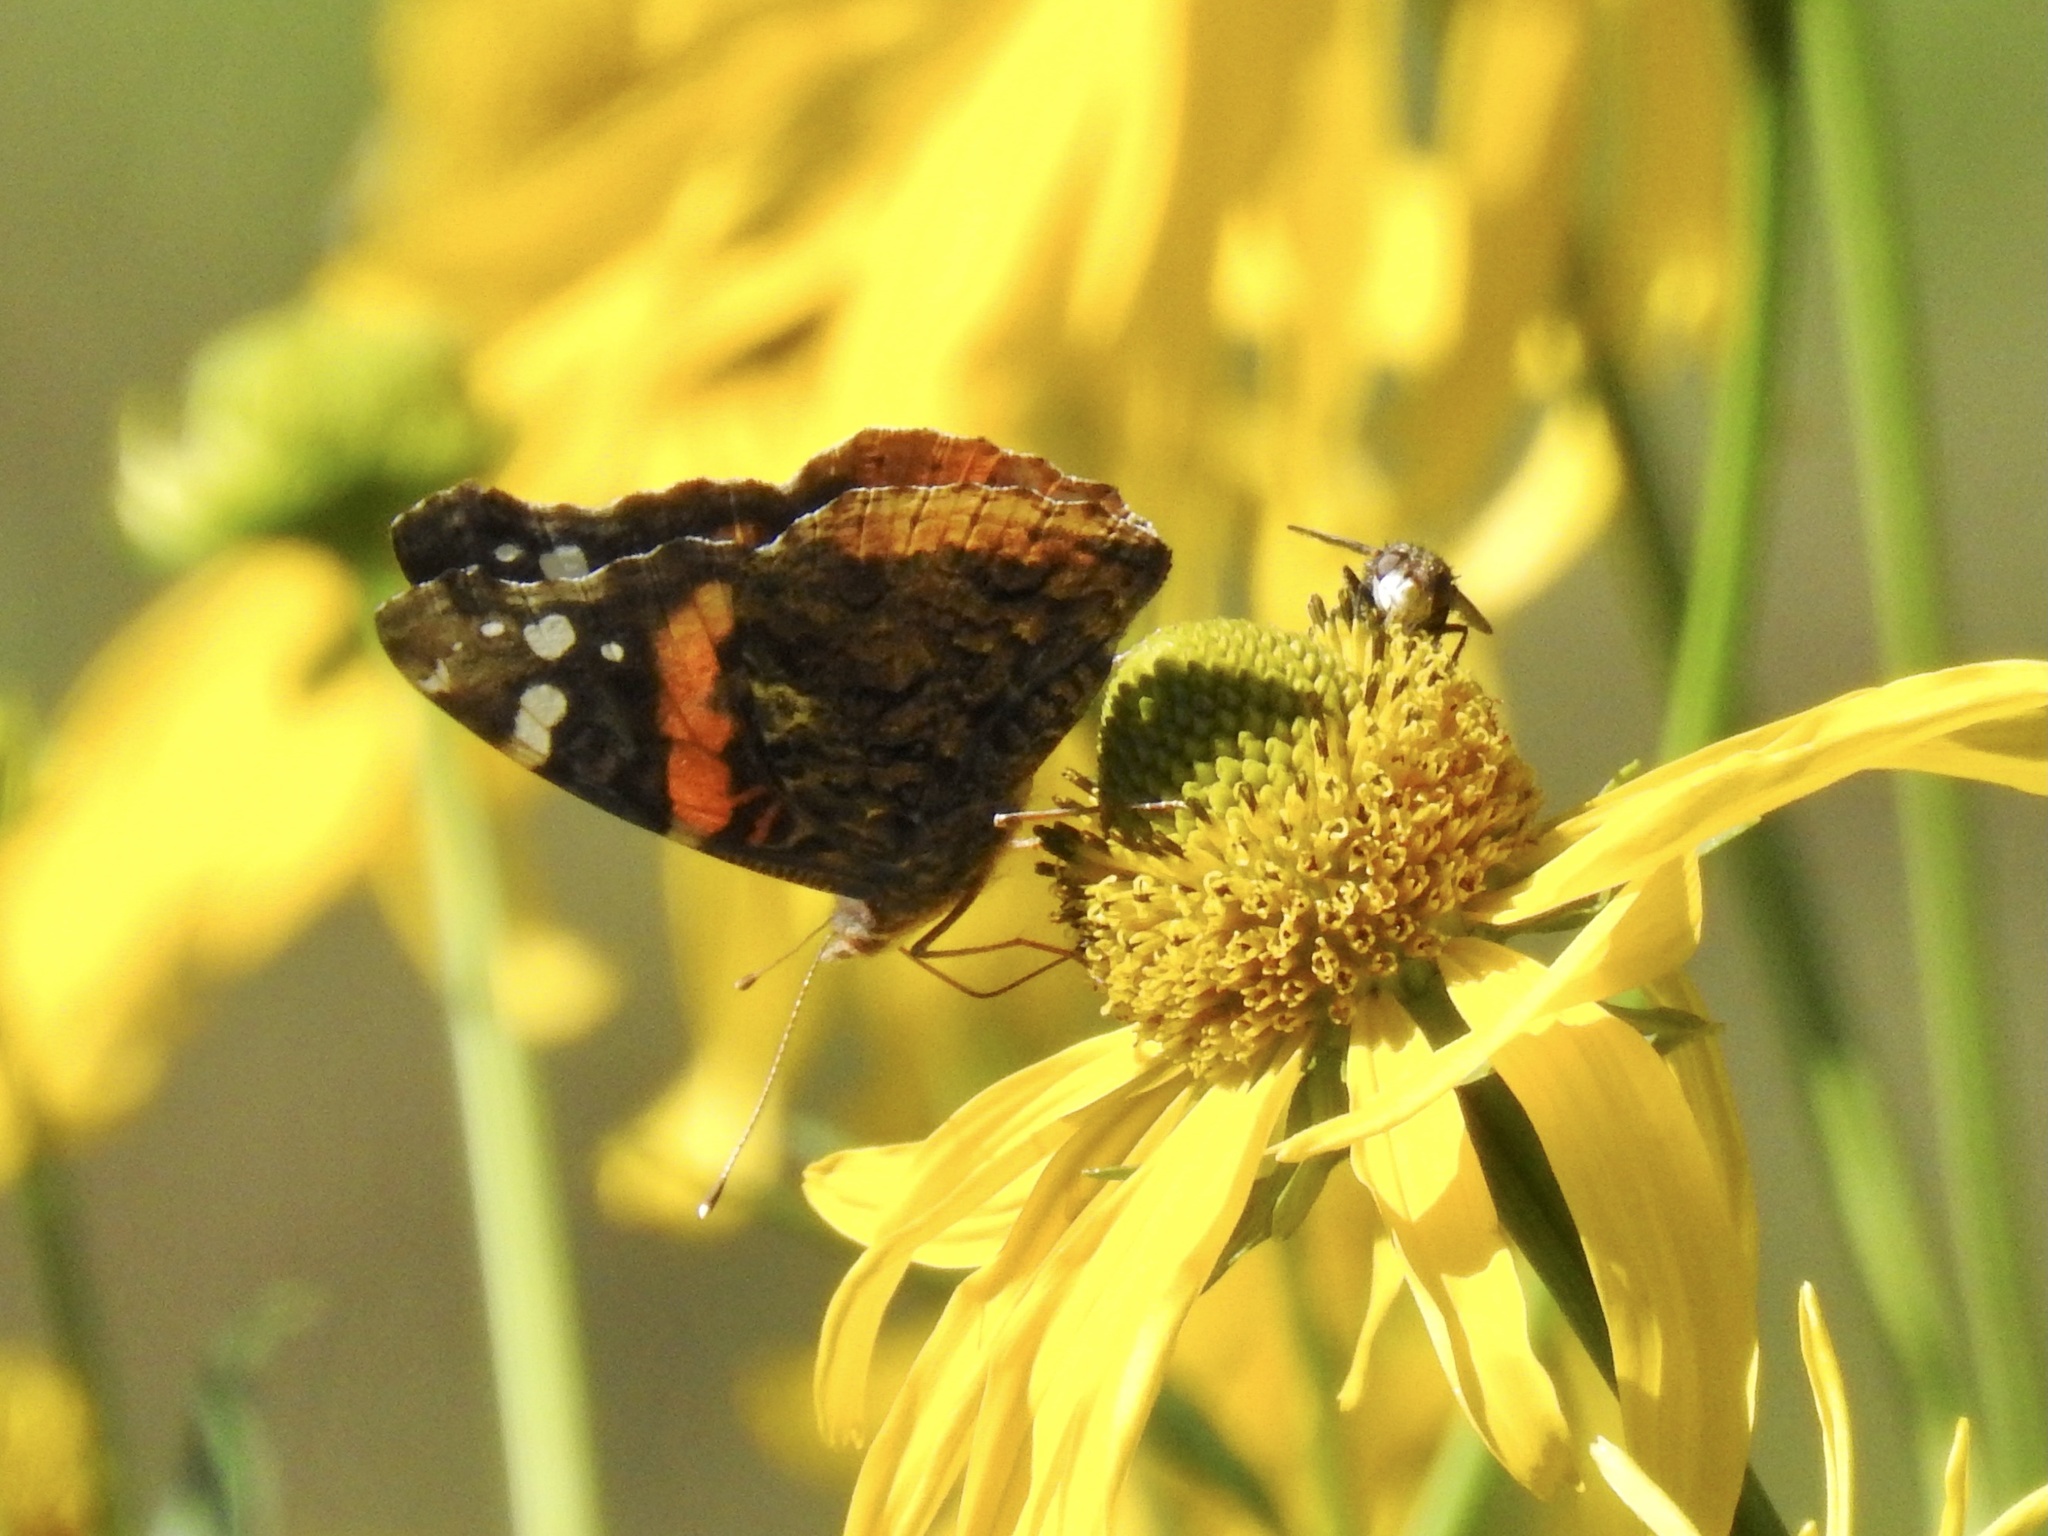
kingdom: Animalia
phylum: Arthropoda
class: Insecta
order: Lepidoptera
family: Nymphalidae
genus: Vanessa
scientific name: Vanessa atalanta
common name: Red admiral
